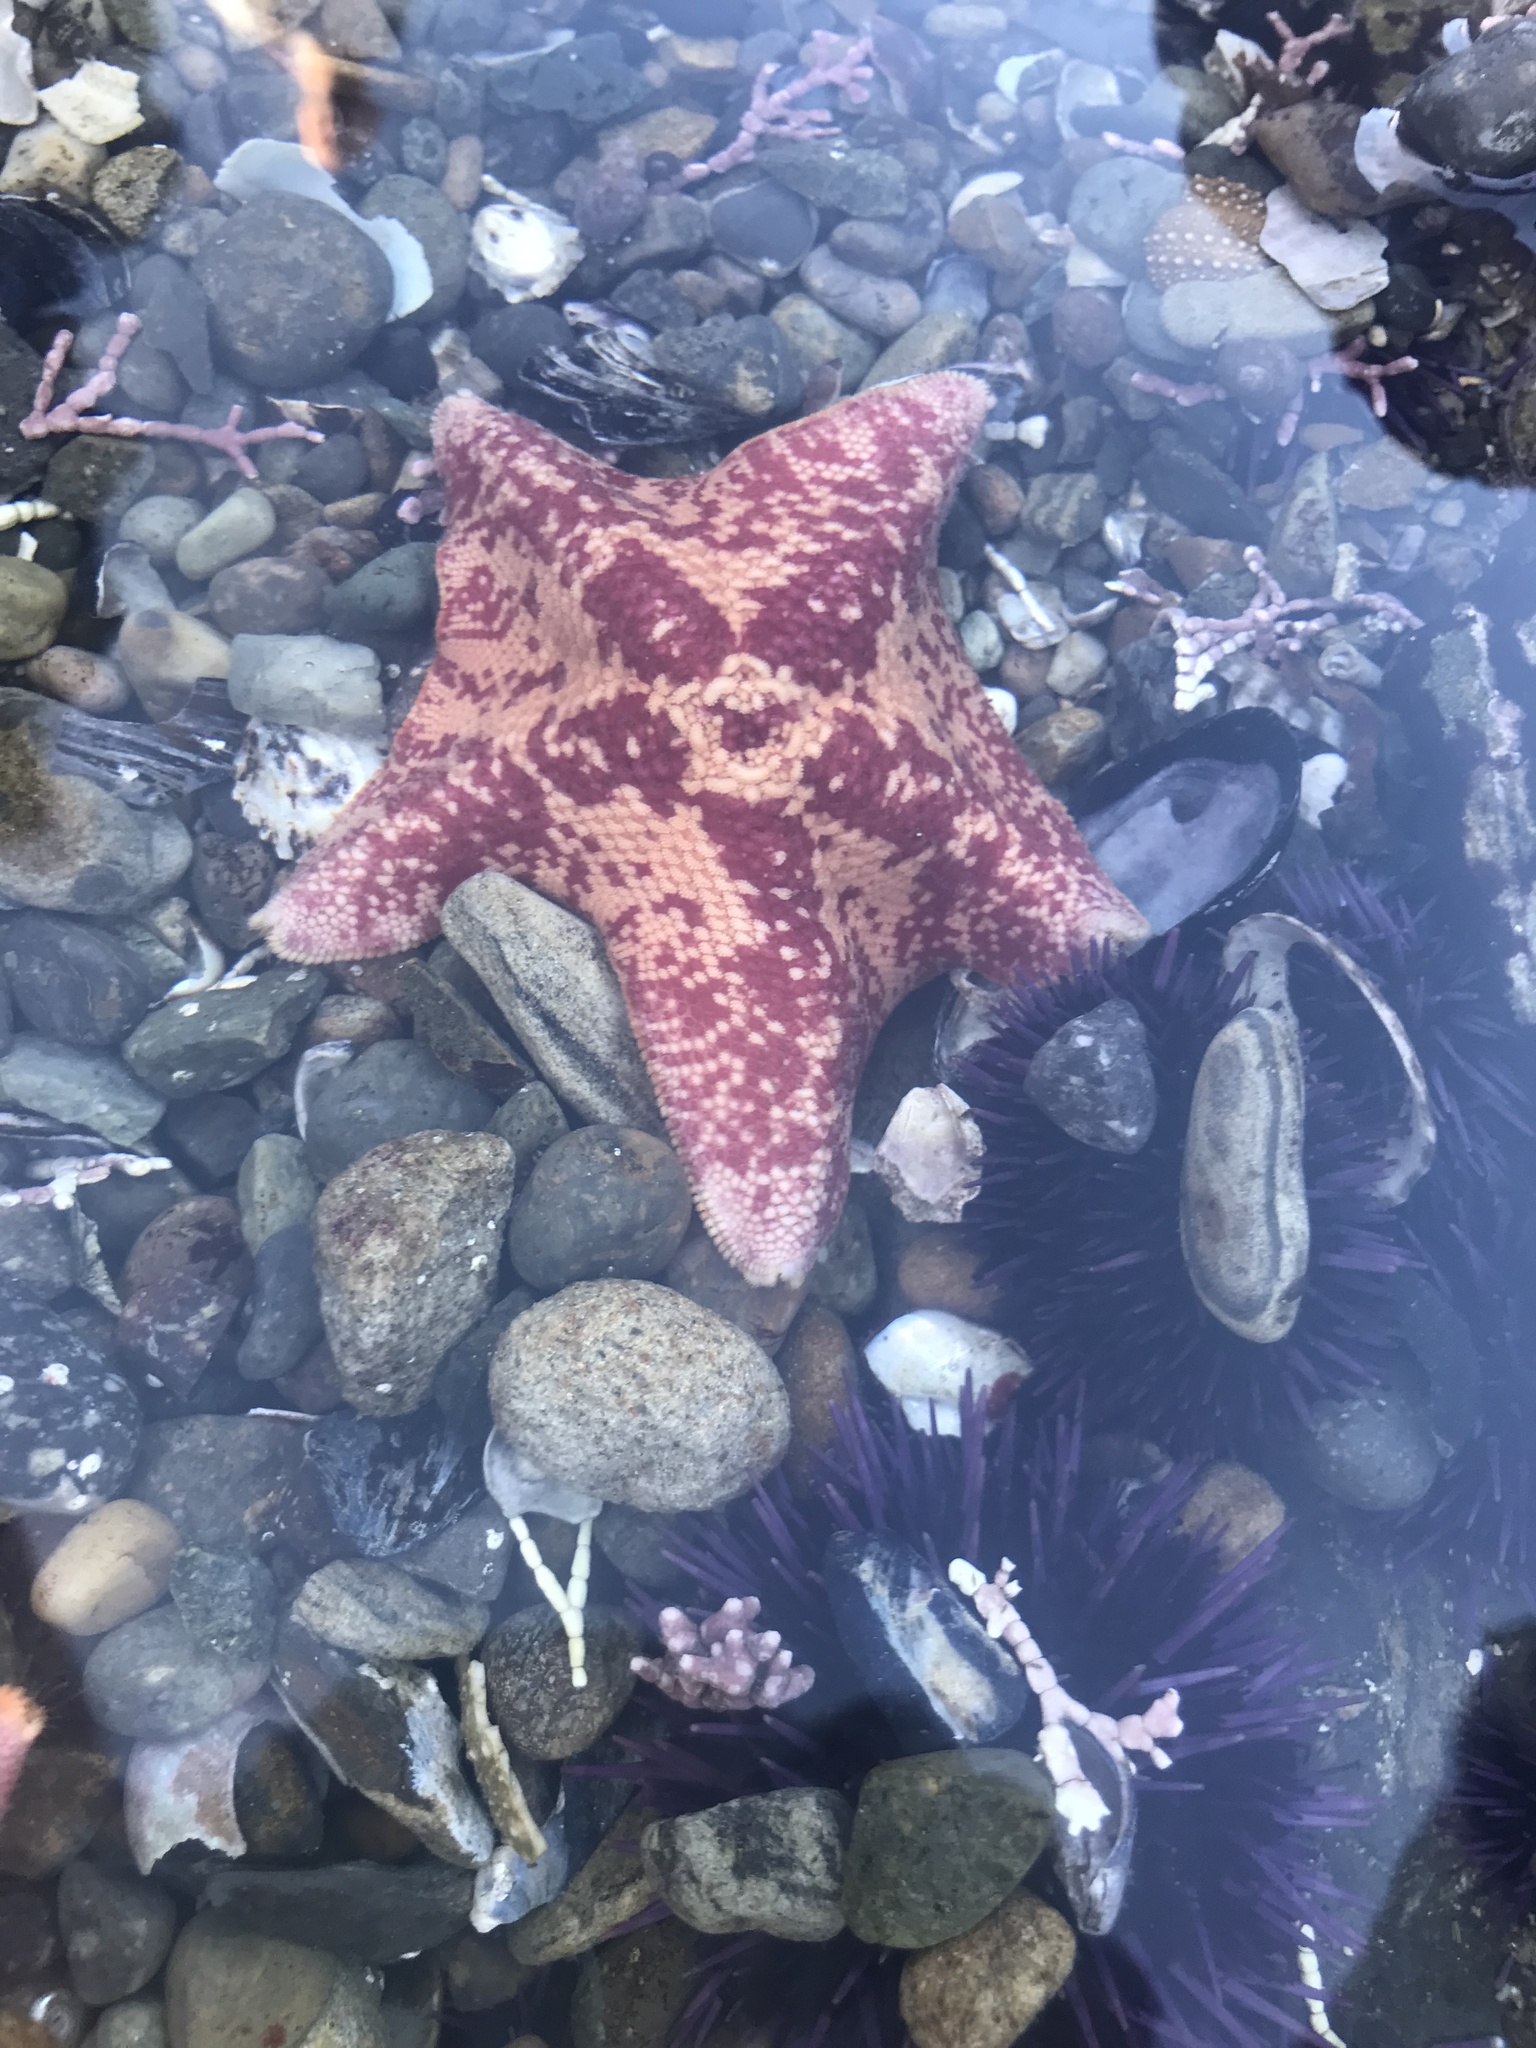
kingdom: Animalia
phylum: Echinodermata
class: Asteroidea
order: Valvatida
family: Asterinidae
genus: Patiria
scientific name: Patiria miniata
